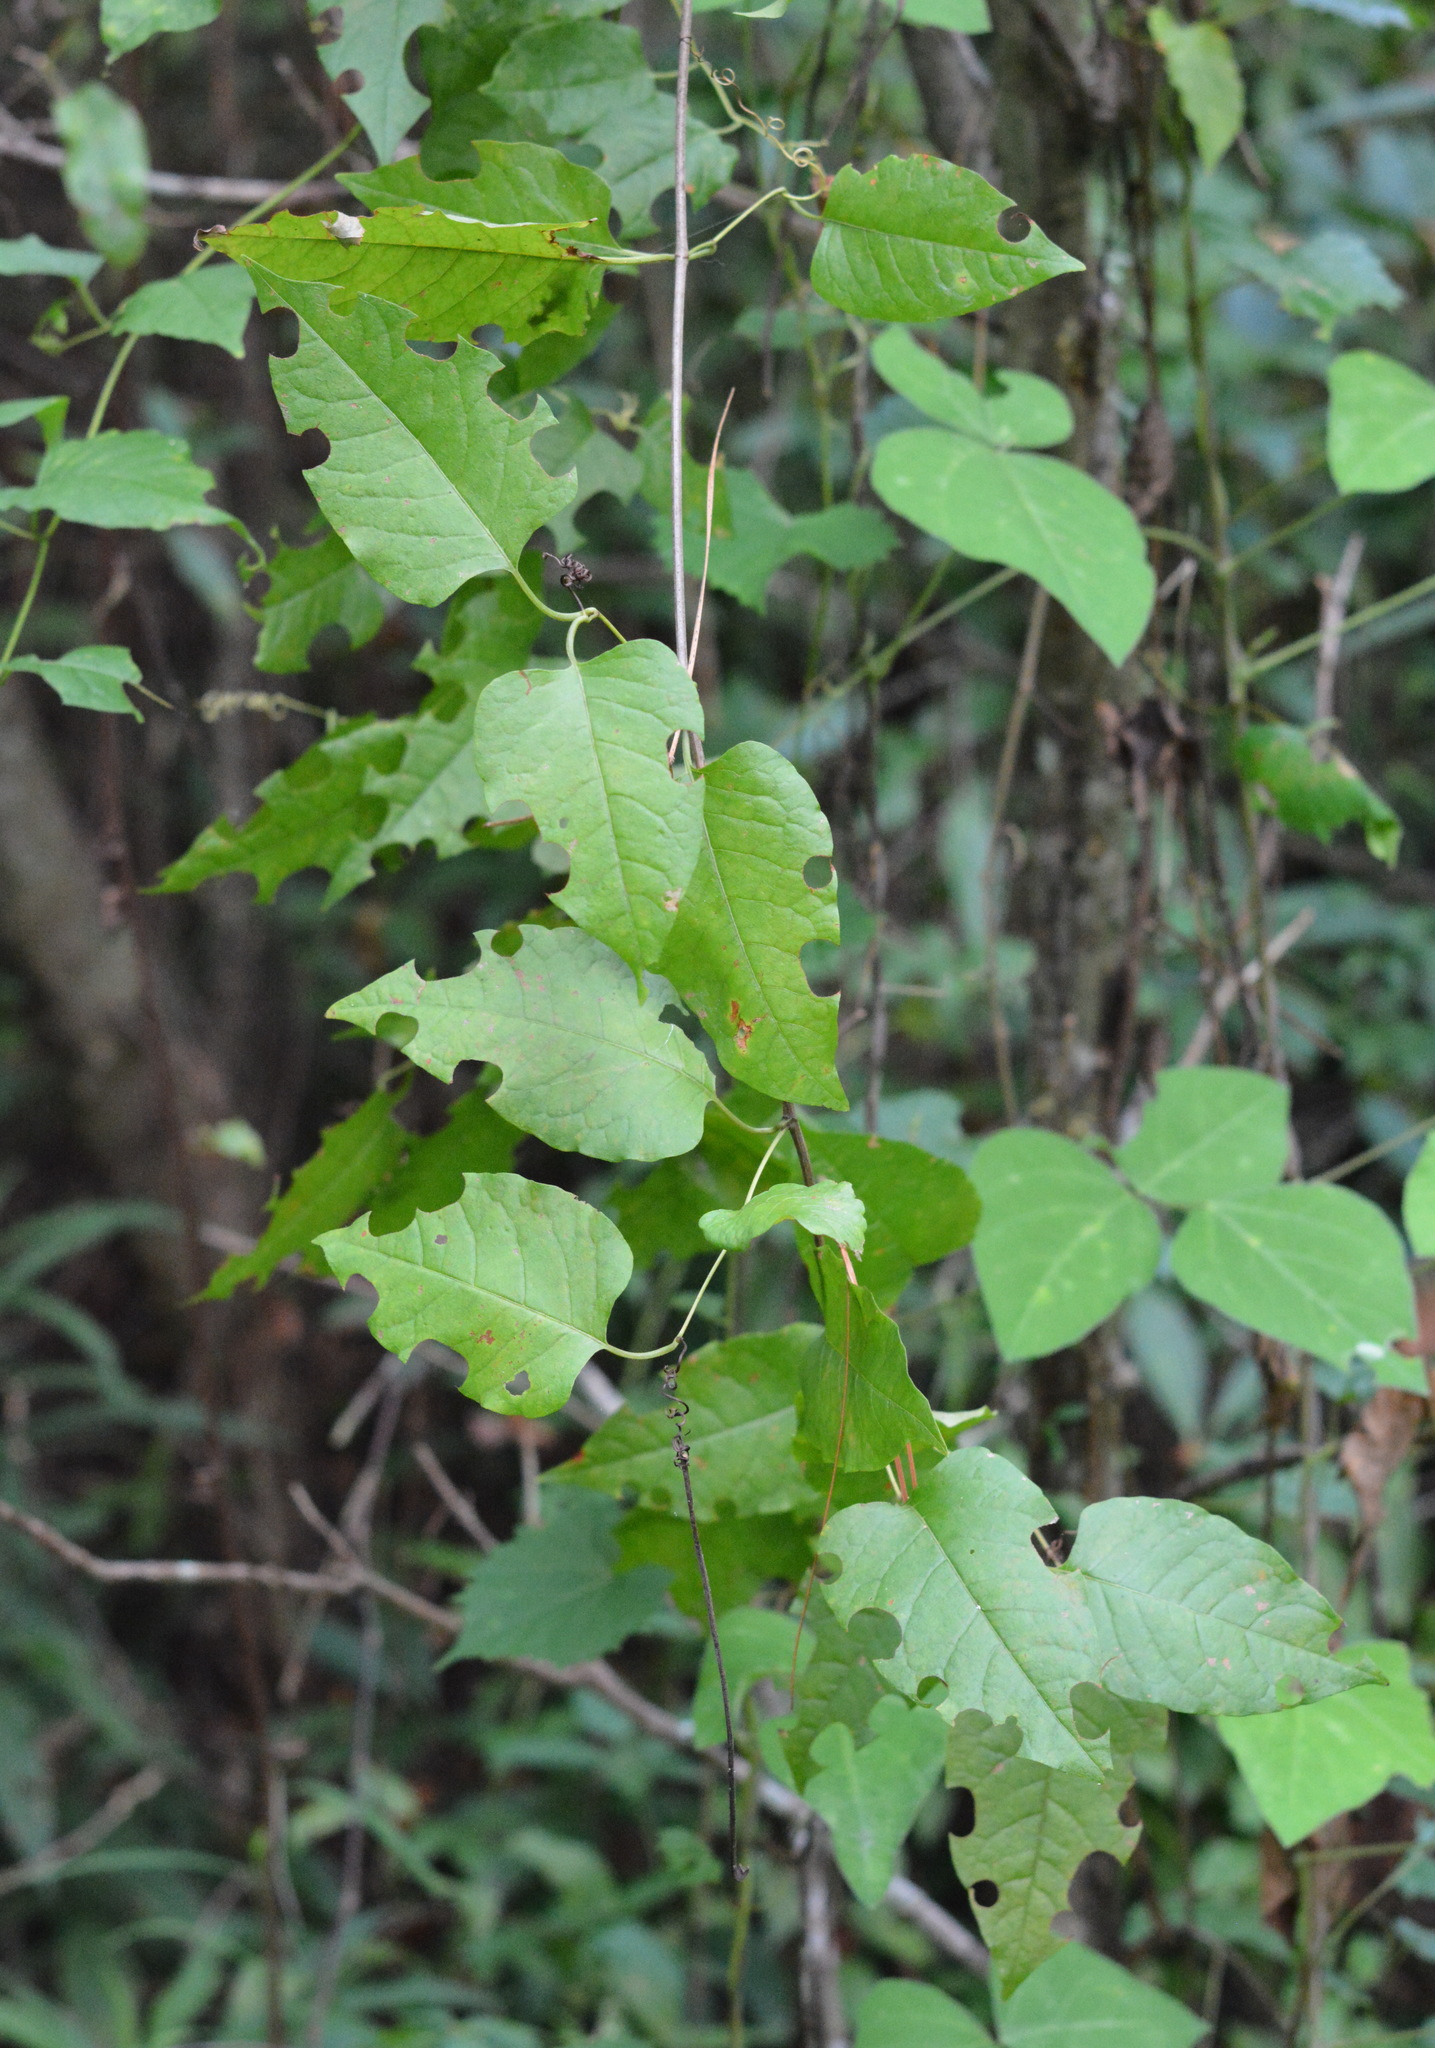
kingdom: Plantae
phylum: Tracheophyta
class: Magnoliopsida
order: Caryophyllales
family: Polygonaceae
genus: Brunnichia
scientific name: Brunnichia ovata
